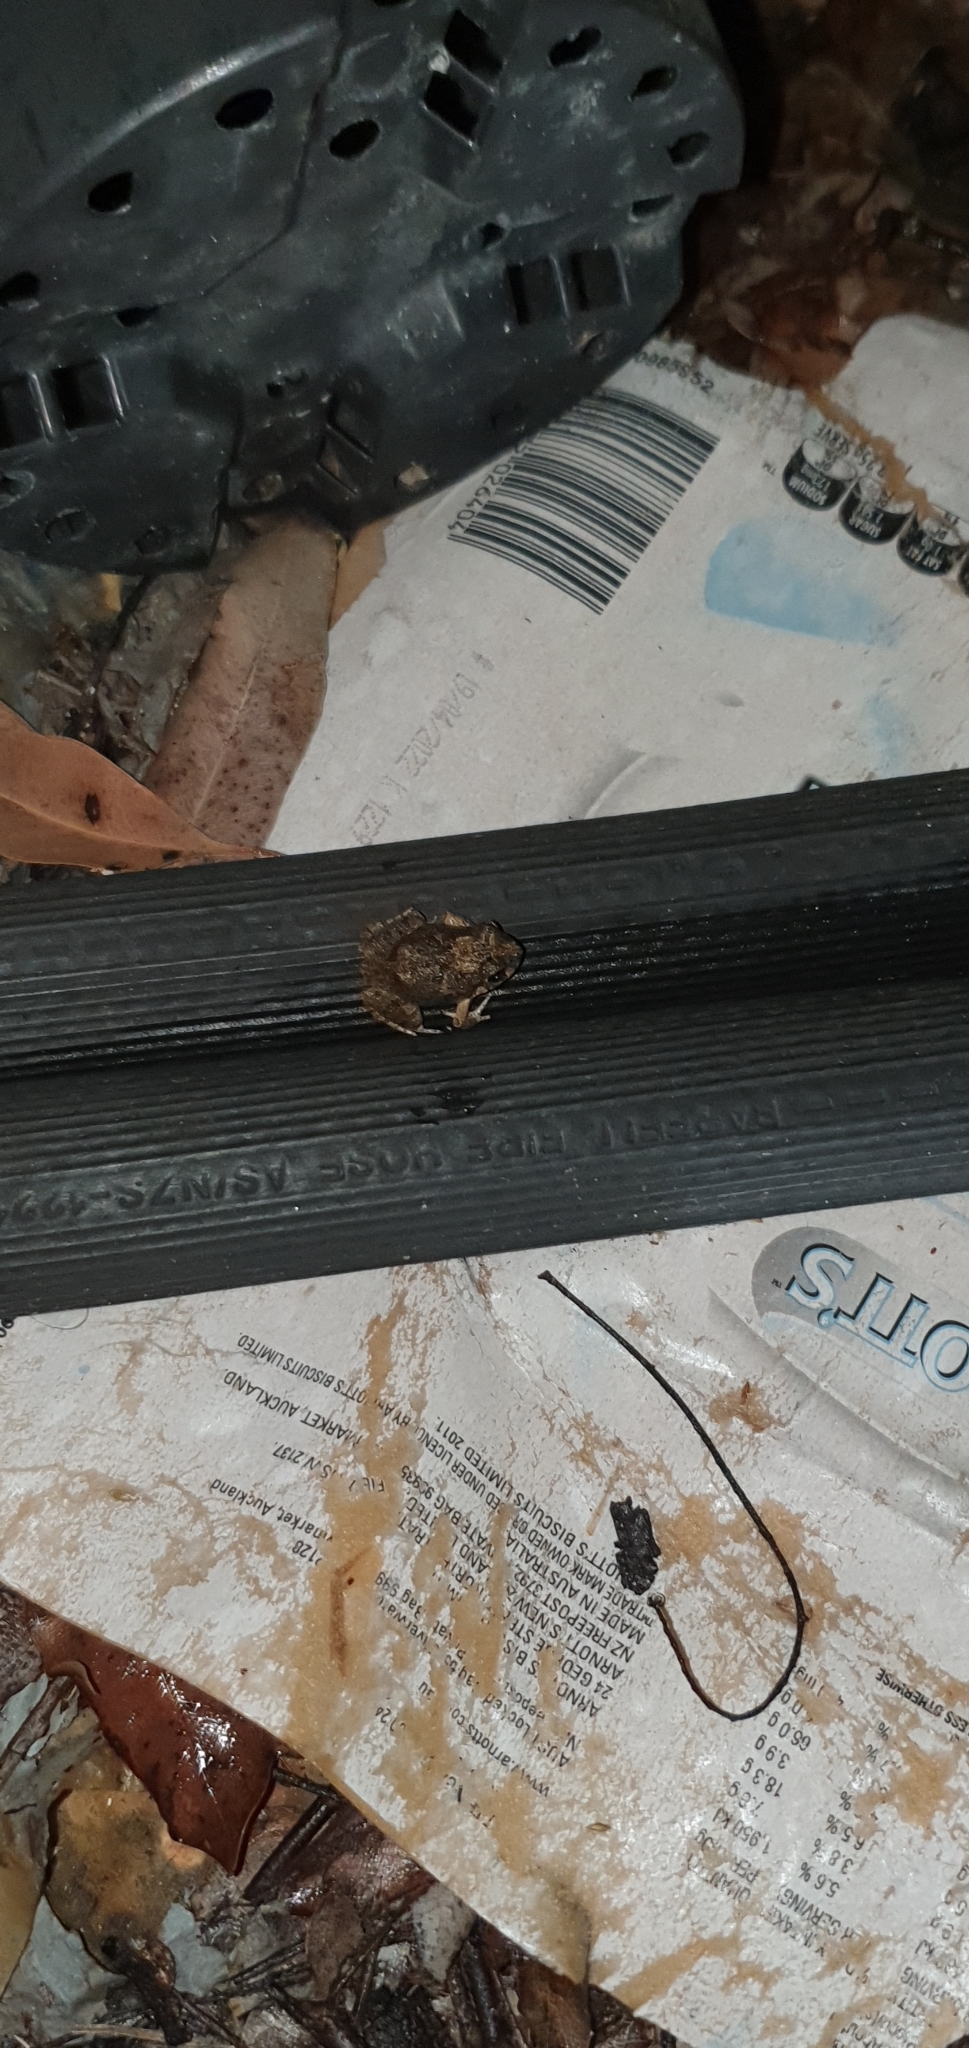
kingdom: Animalia
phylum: Chordata
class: Amphibia
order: Anura
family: Limnodynastidae
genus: Platyplectrum
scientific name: Platyplectrum ornatum
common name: Ornate burrowing frog
